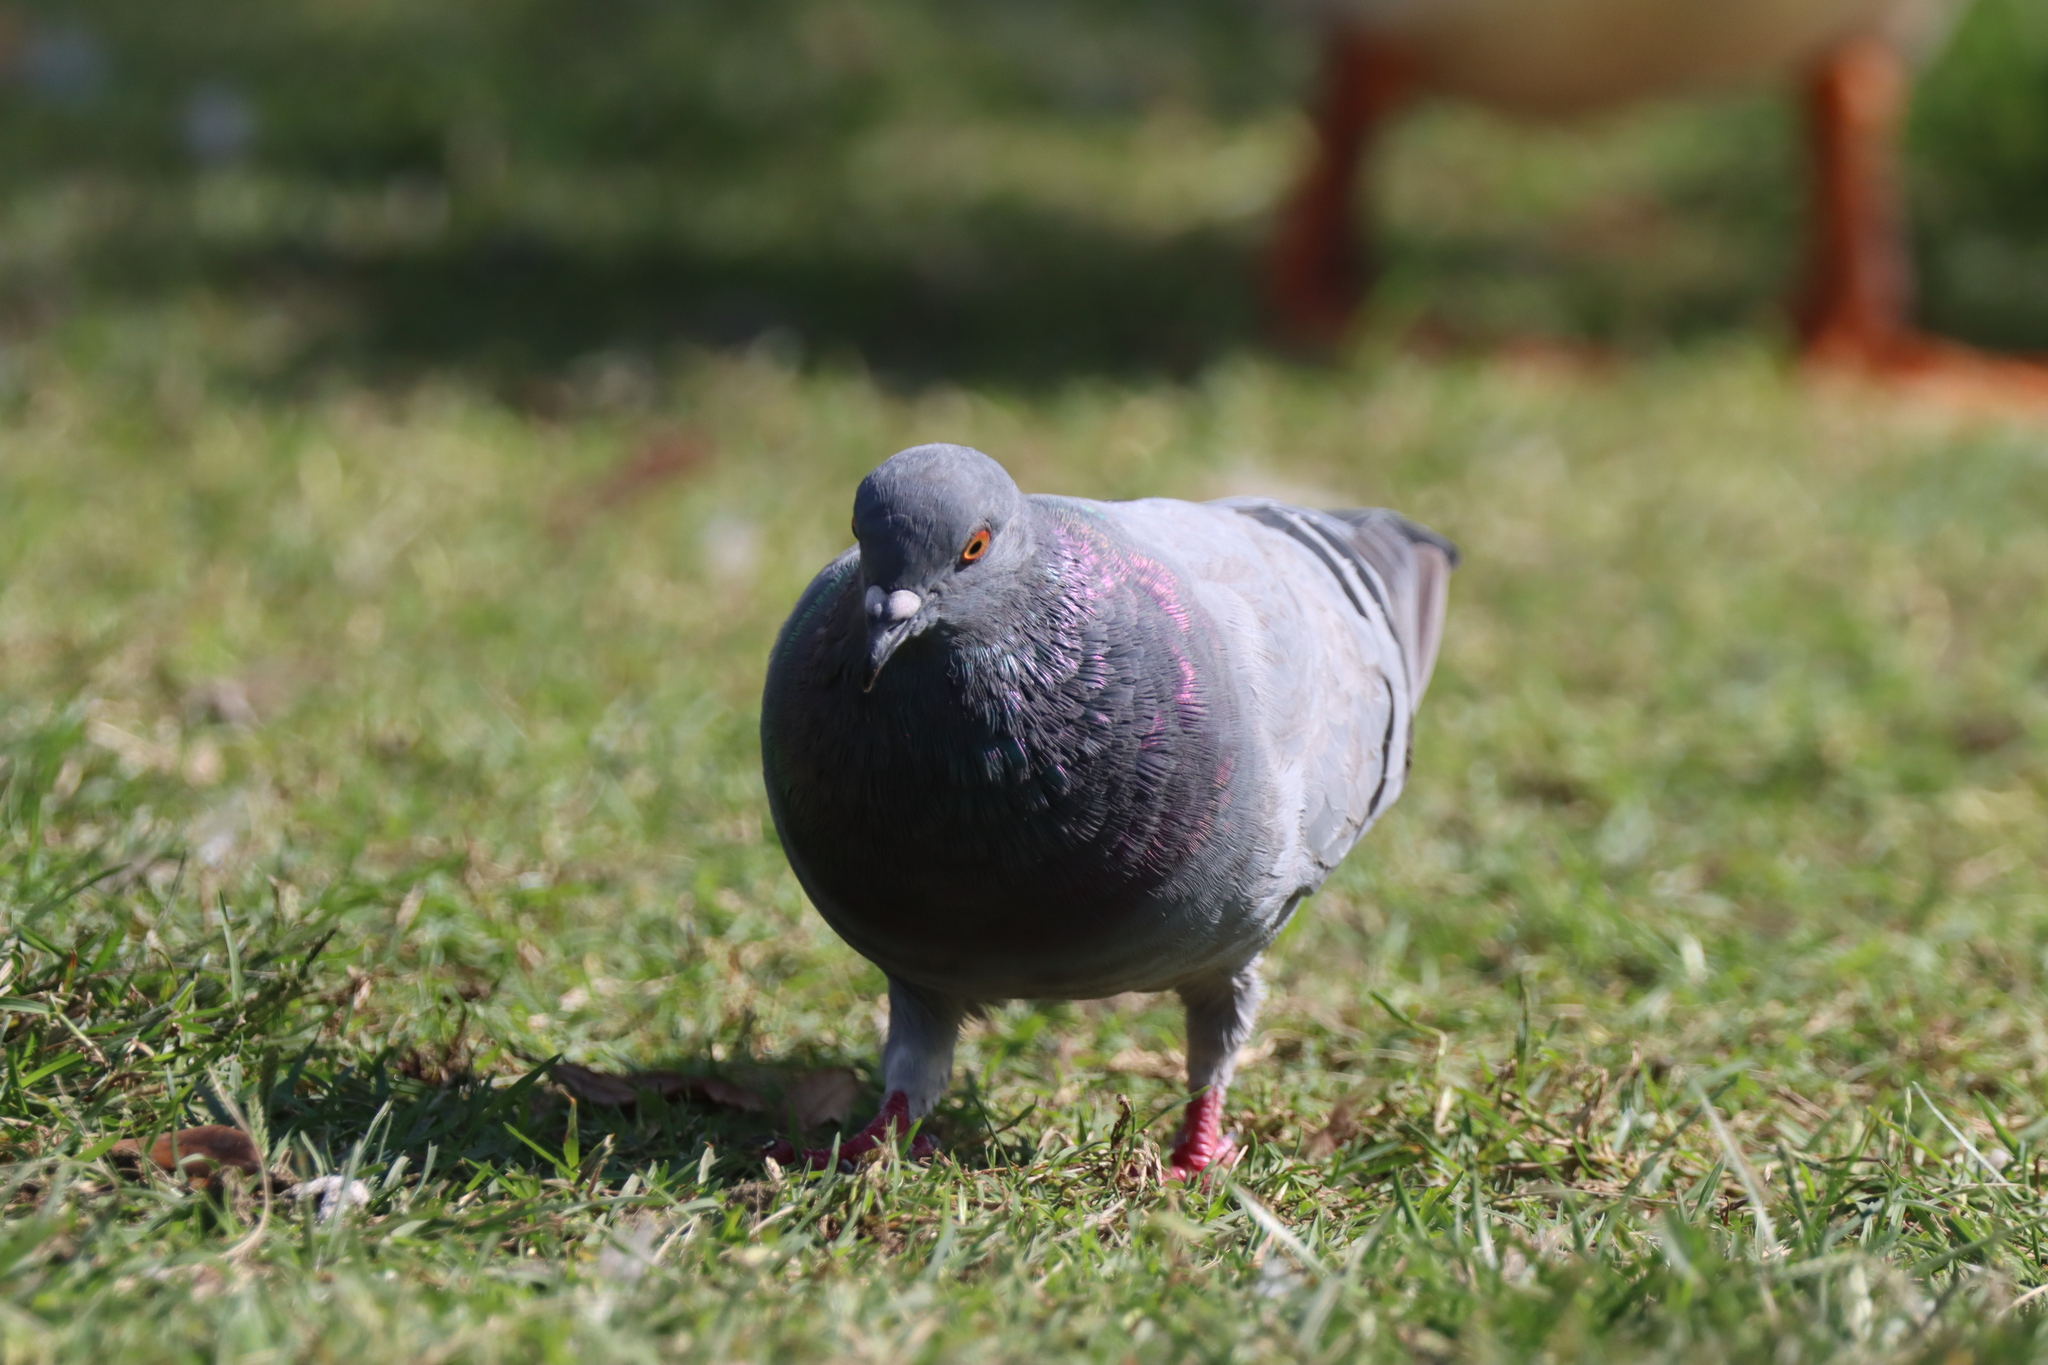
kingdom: Animalia
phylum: Chordata
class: Aves
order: Columbiformes
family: Columbidae
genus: Columba
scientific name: Columba livia
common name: Rock pigeon
